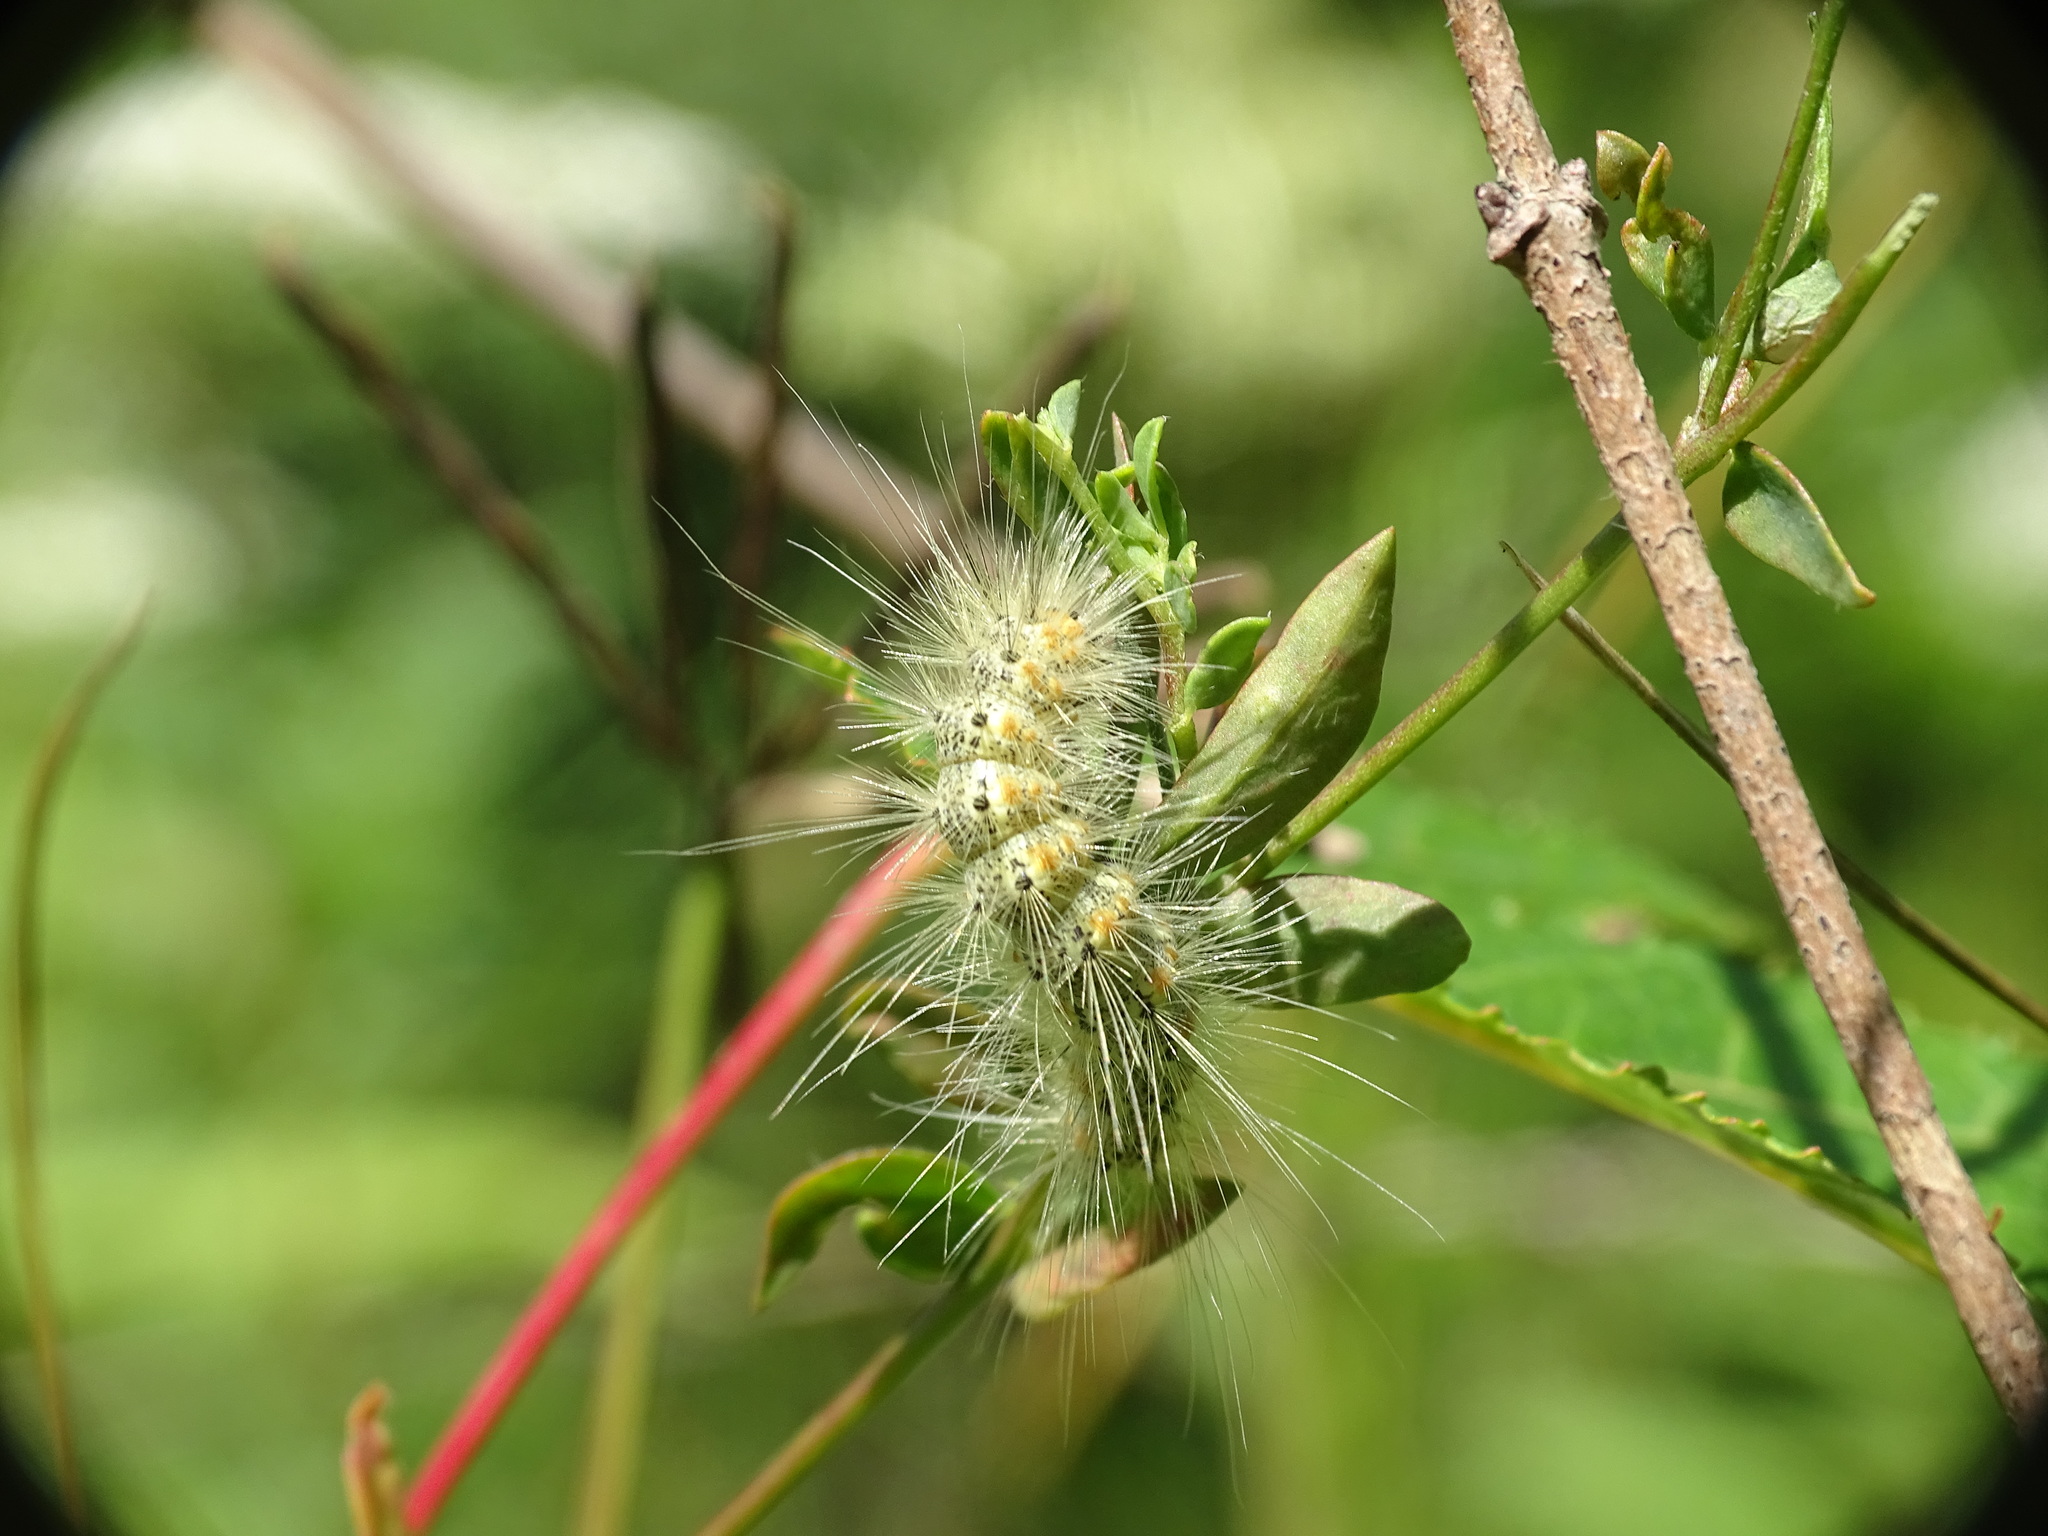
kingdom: Animalia
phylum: Arthropoda
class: Insecta
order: Lepidoptera
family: Erebidae
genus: Hyphantria
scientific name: Hyphantria cunea
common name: American white moth
